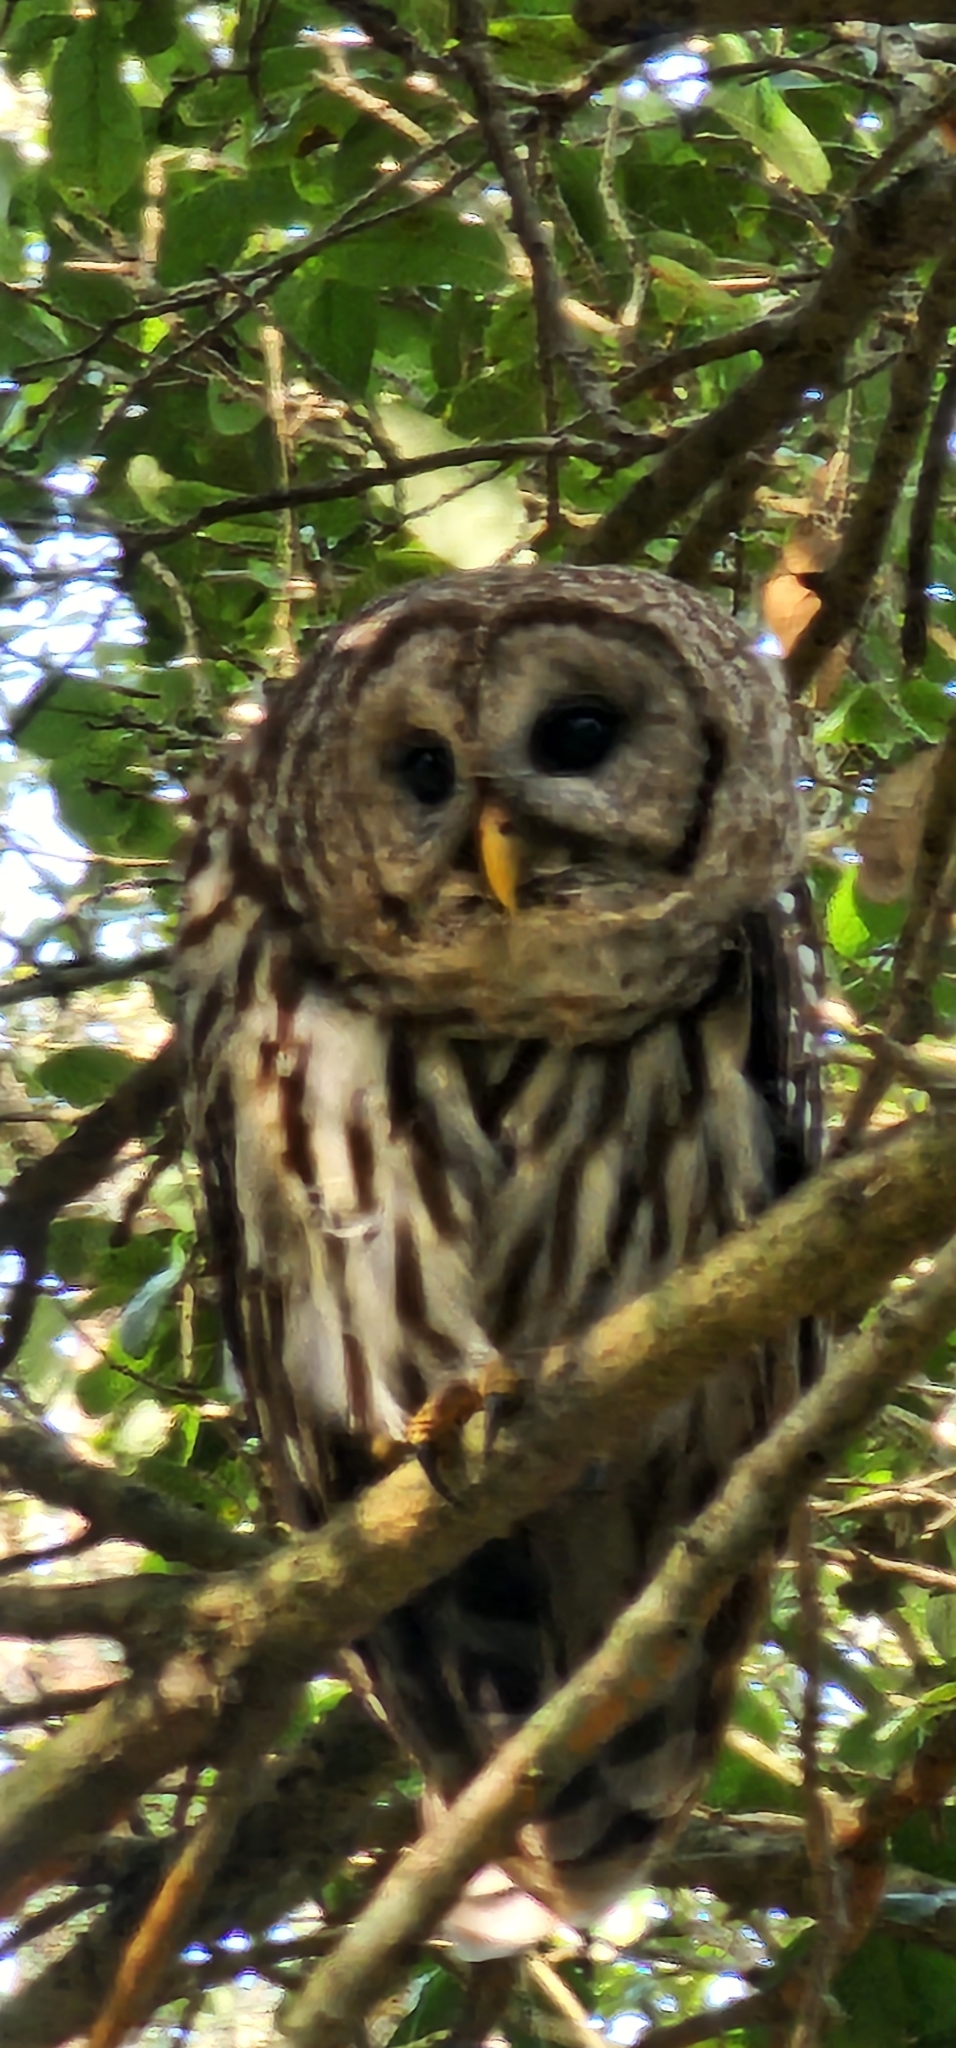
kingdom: Animalia
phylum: Chordata
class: Aves
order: Strigiformes
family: Strigidae
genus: Strix
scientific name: Strix varia
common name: Barred owl
